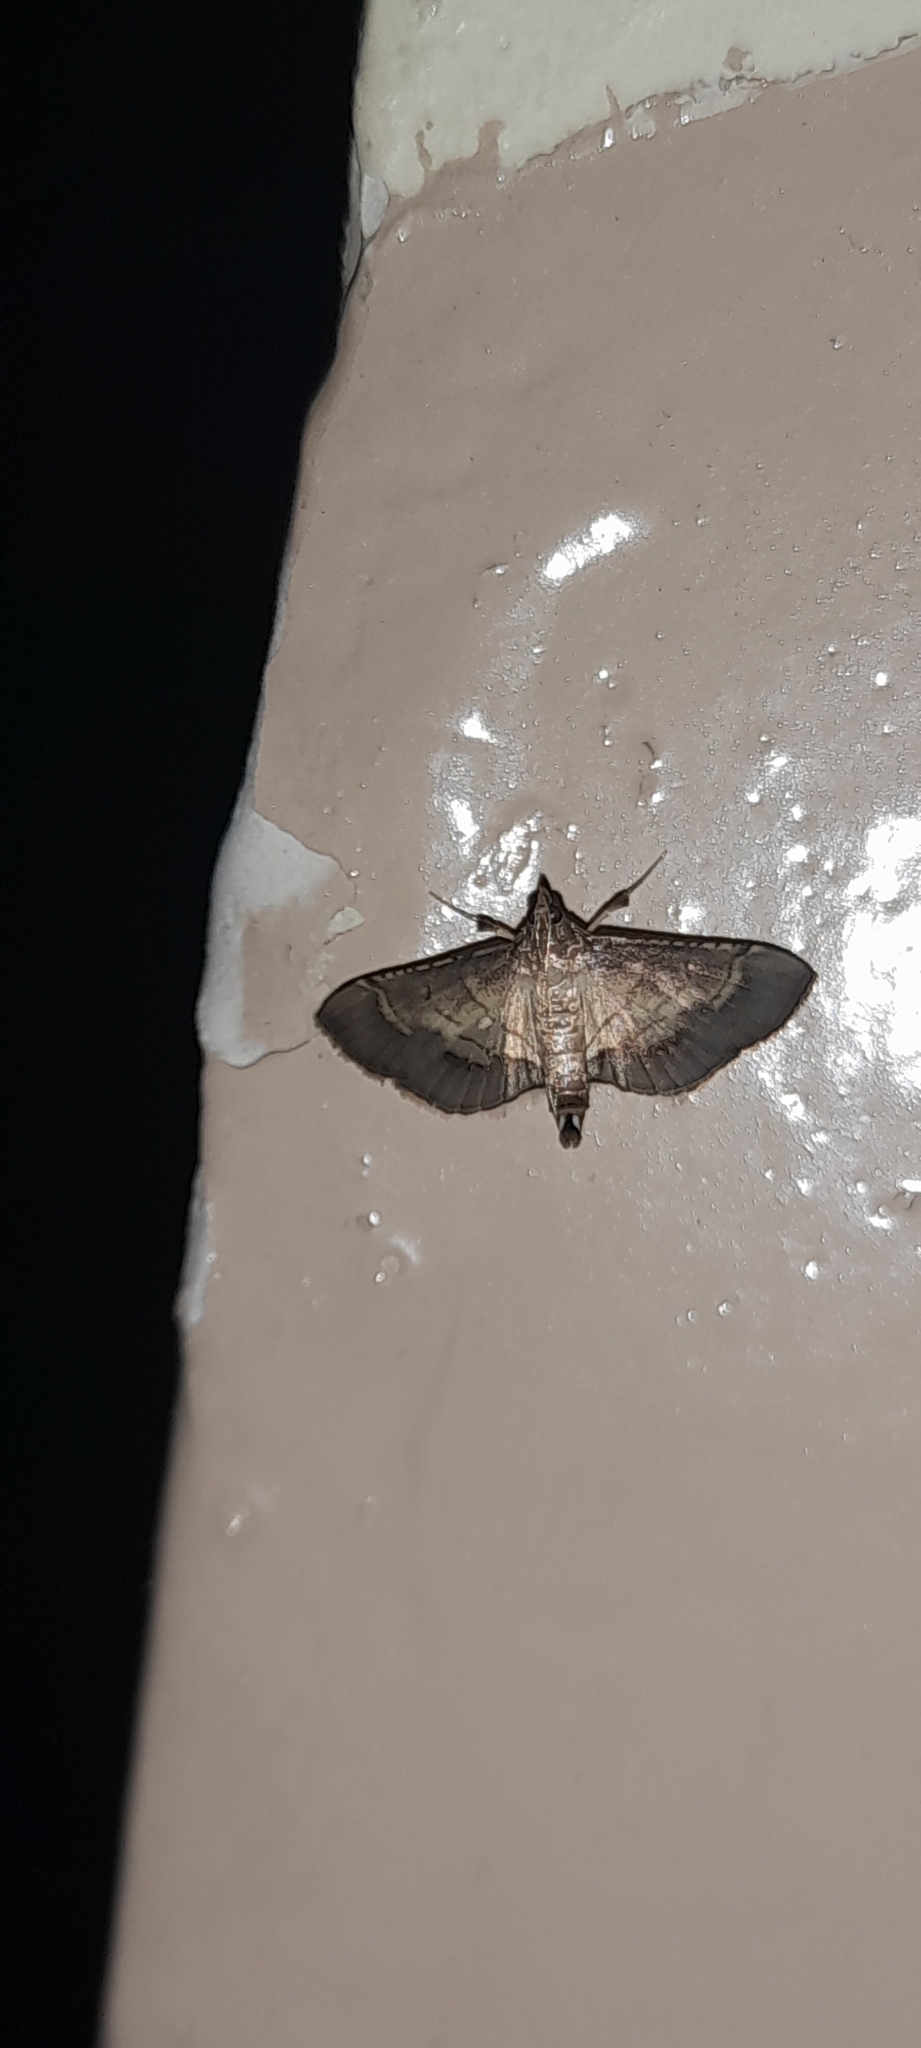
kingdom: Animalia
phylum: Arthropoda
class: Insecta
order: Lepidoptera
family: Crambidae
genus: Cnaphalocrocis
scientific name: Cnaphalocrocis trebiusalis
